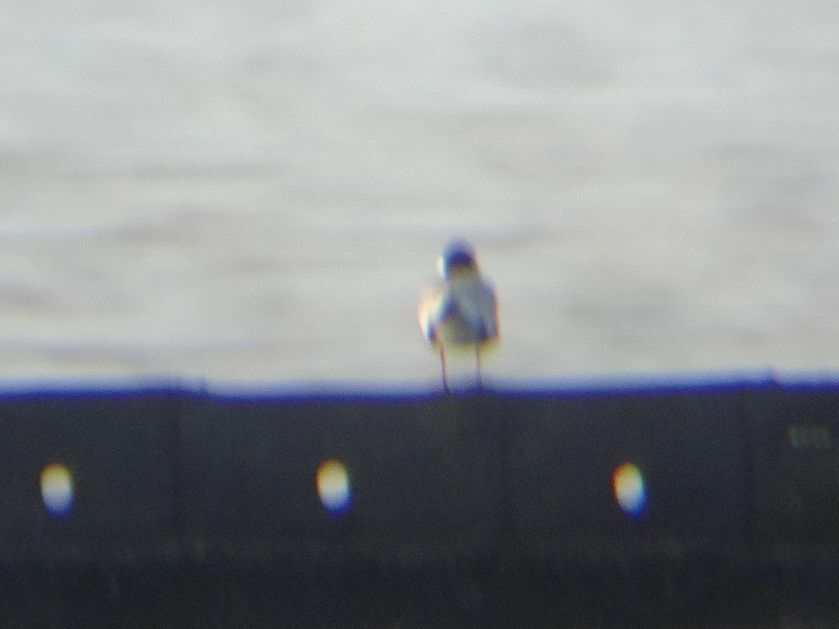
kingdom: Animalia
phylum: Chordata
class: Aves
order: Charadriiformes
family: Laridae
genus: Chlidonias
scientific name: Chlidonias hybrida
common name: Whiskered tern
